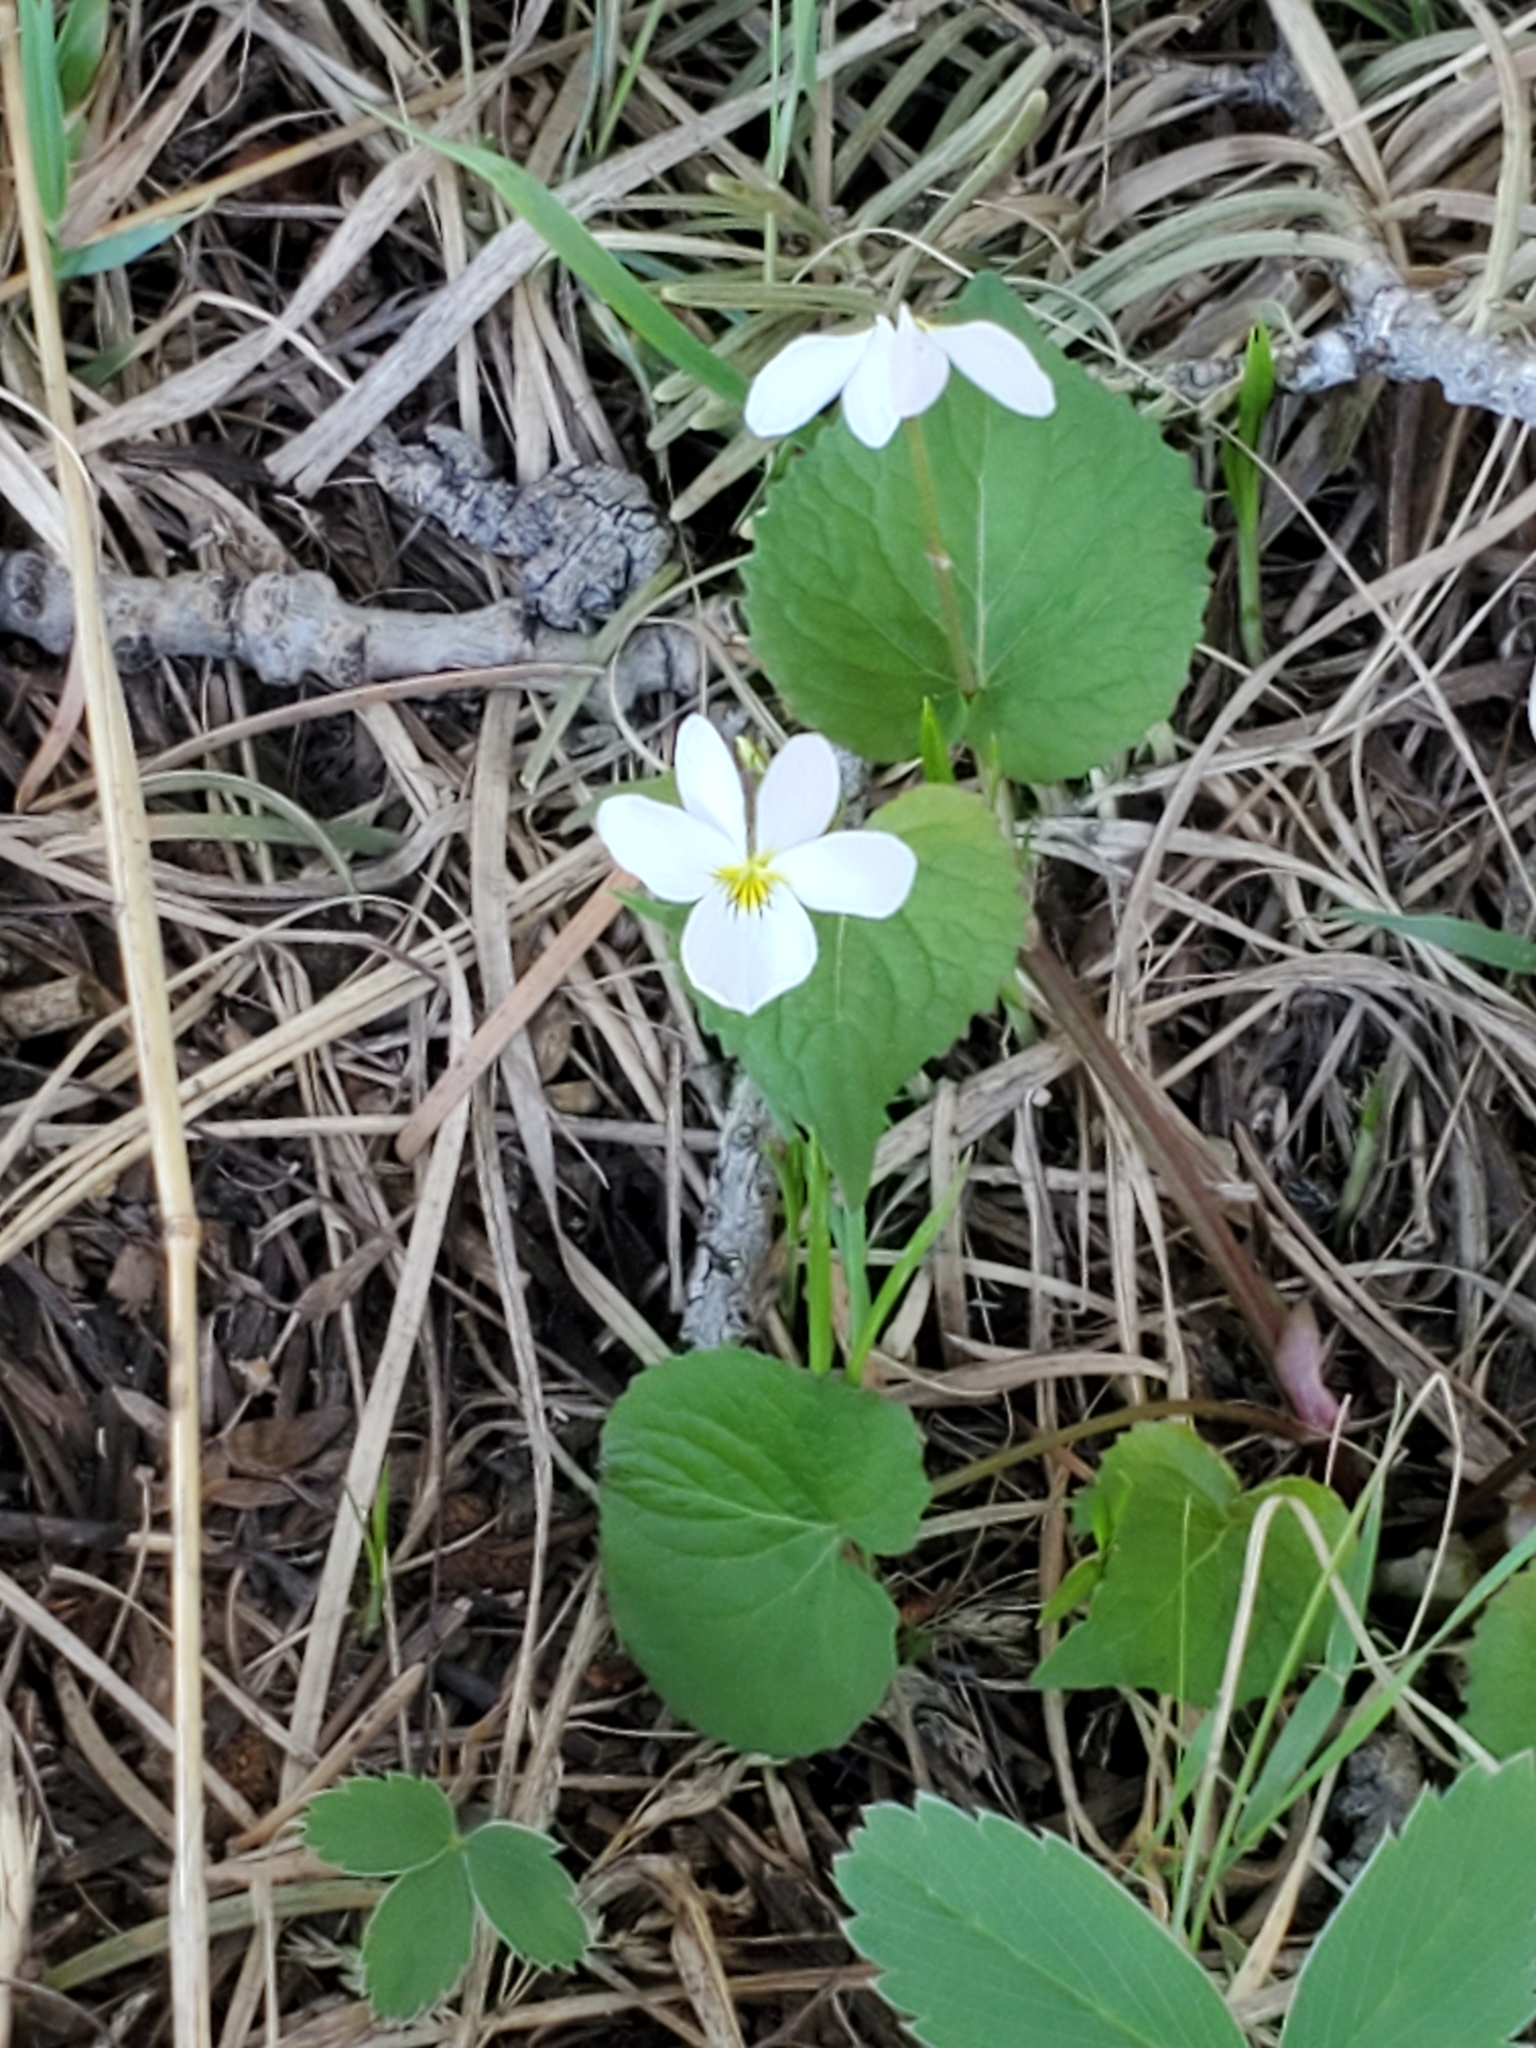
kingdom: Plantae
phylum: Tracheophyta
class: Magnoliopsida
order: Malpighiales
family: Violaceae
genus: Viola
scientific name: Viola canadensis
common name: Canada violet
